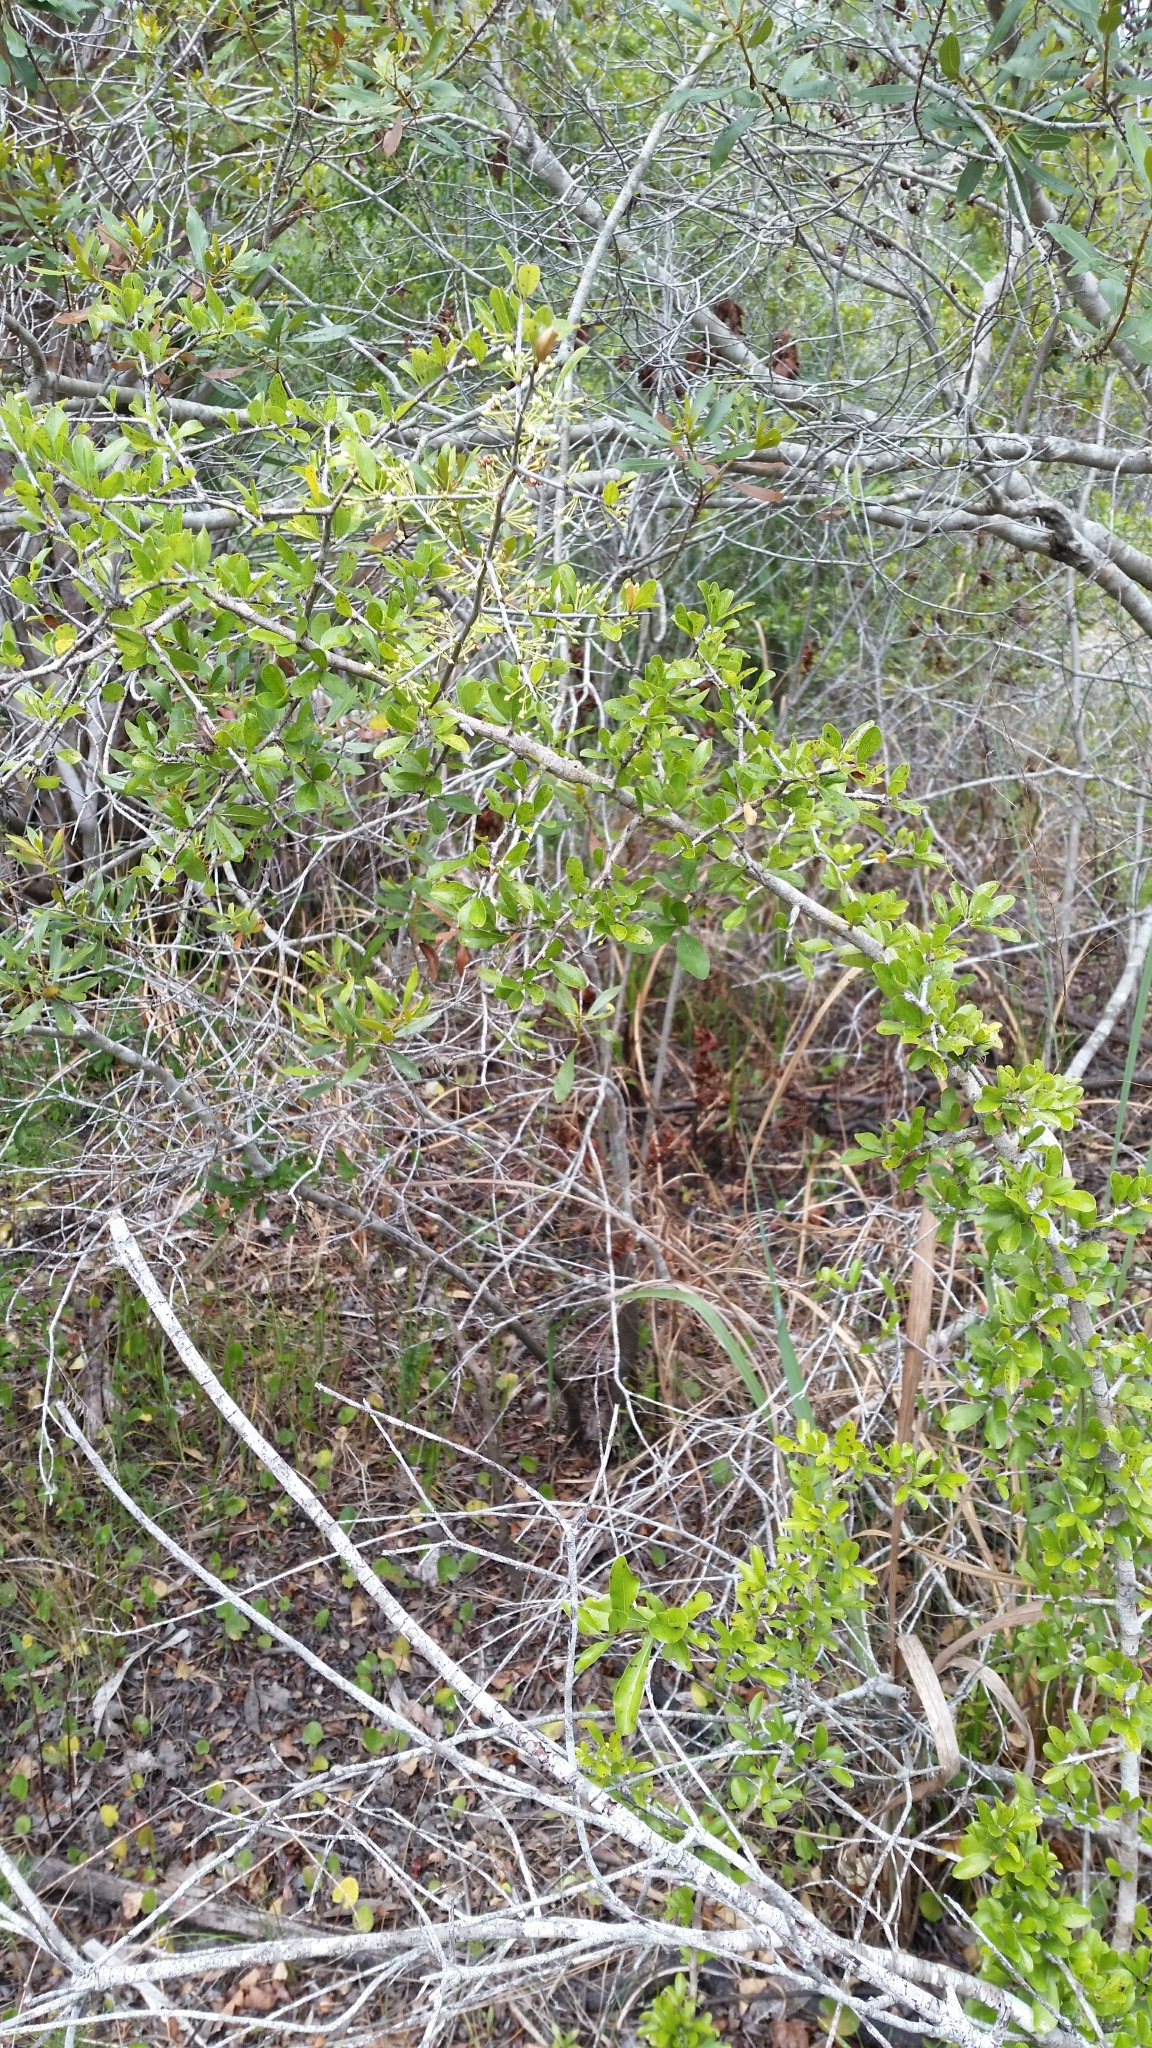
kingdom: Plantae
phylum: Tracheophyta
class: Magnoliopsida
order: Ericales
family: Sapotaceae
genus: Sideroxylon
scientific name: Sideroxylon reclinatum
